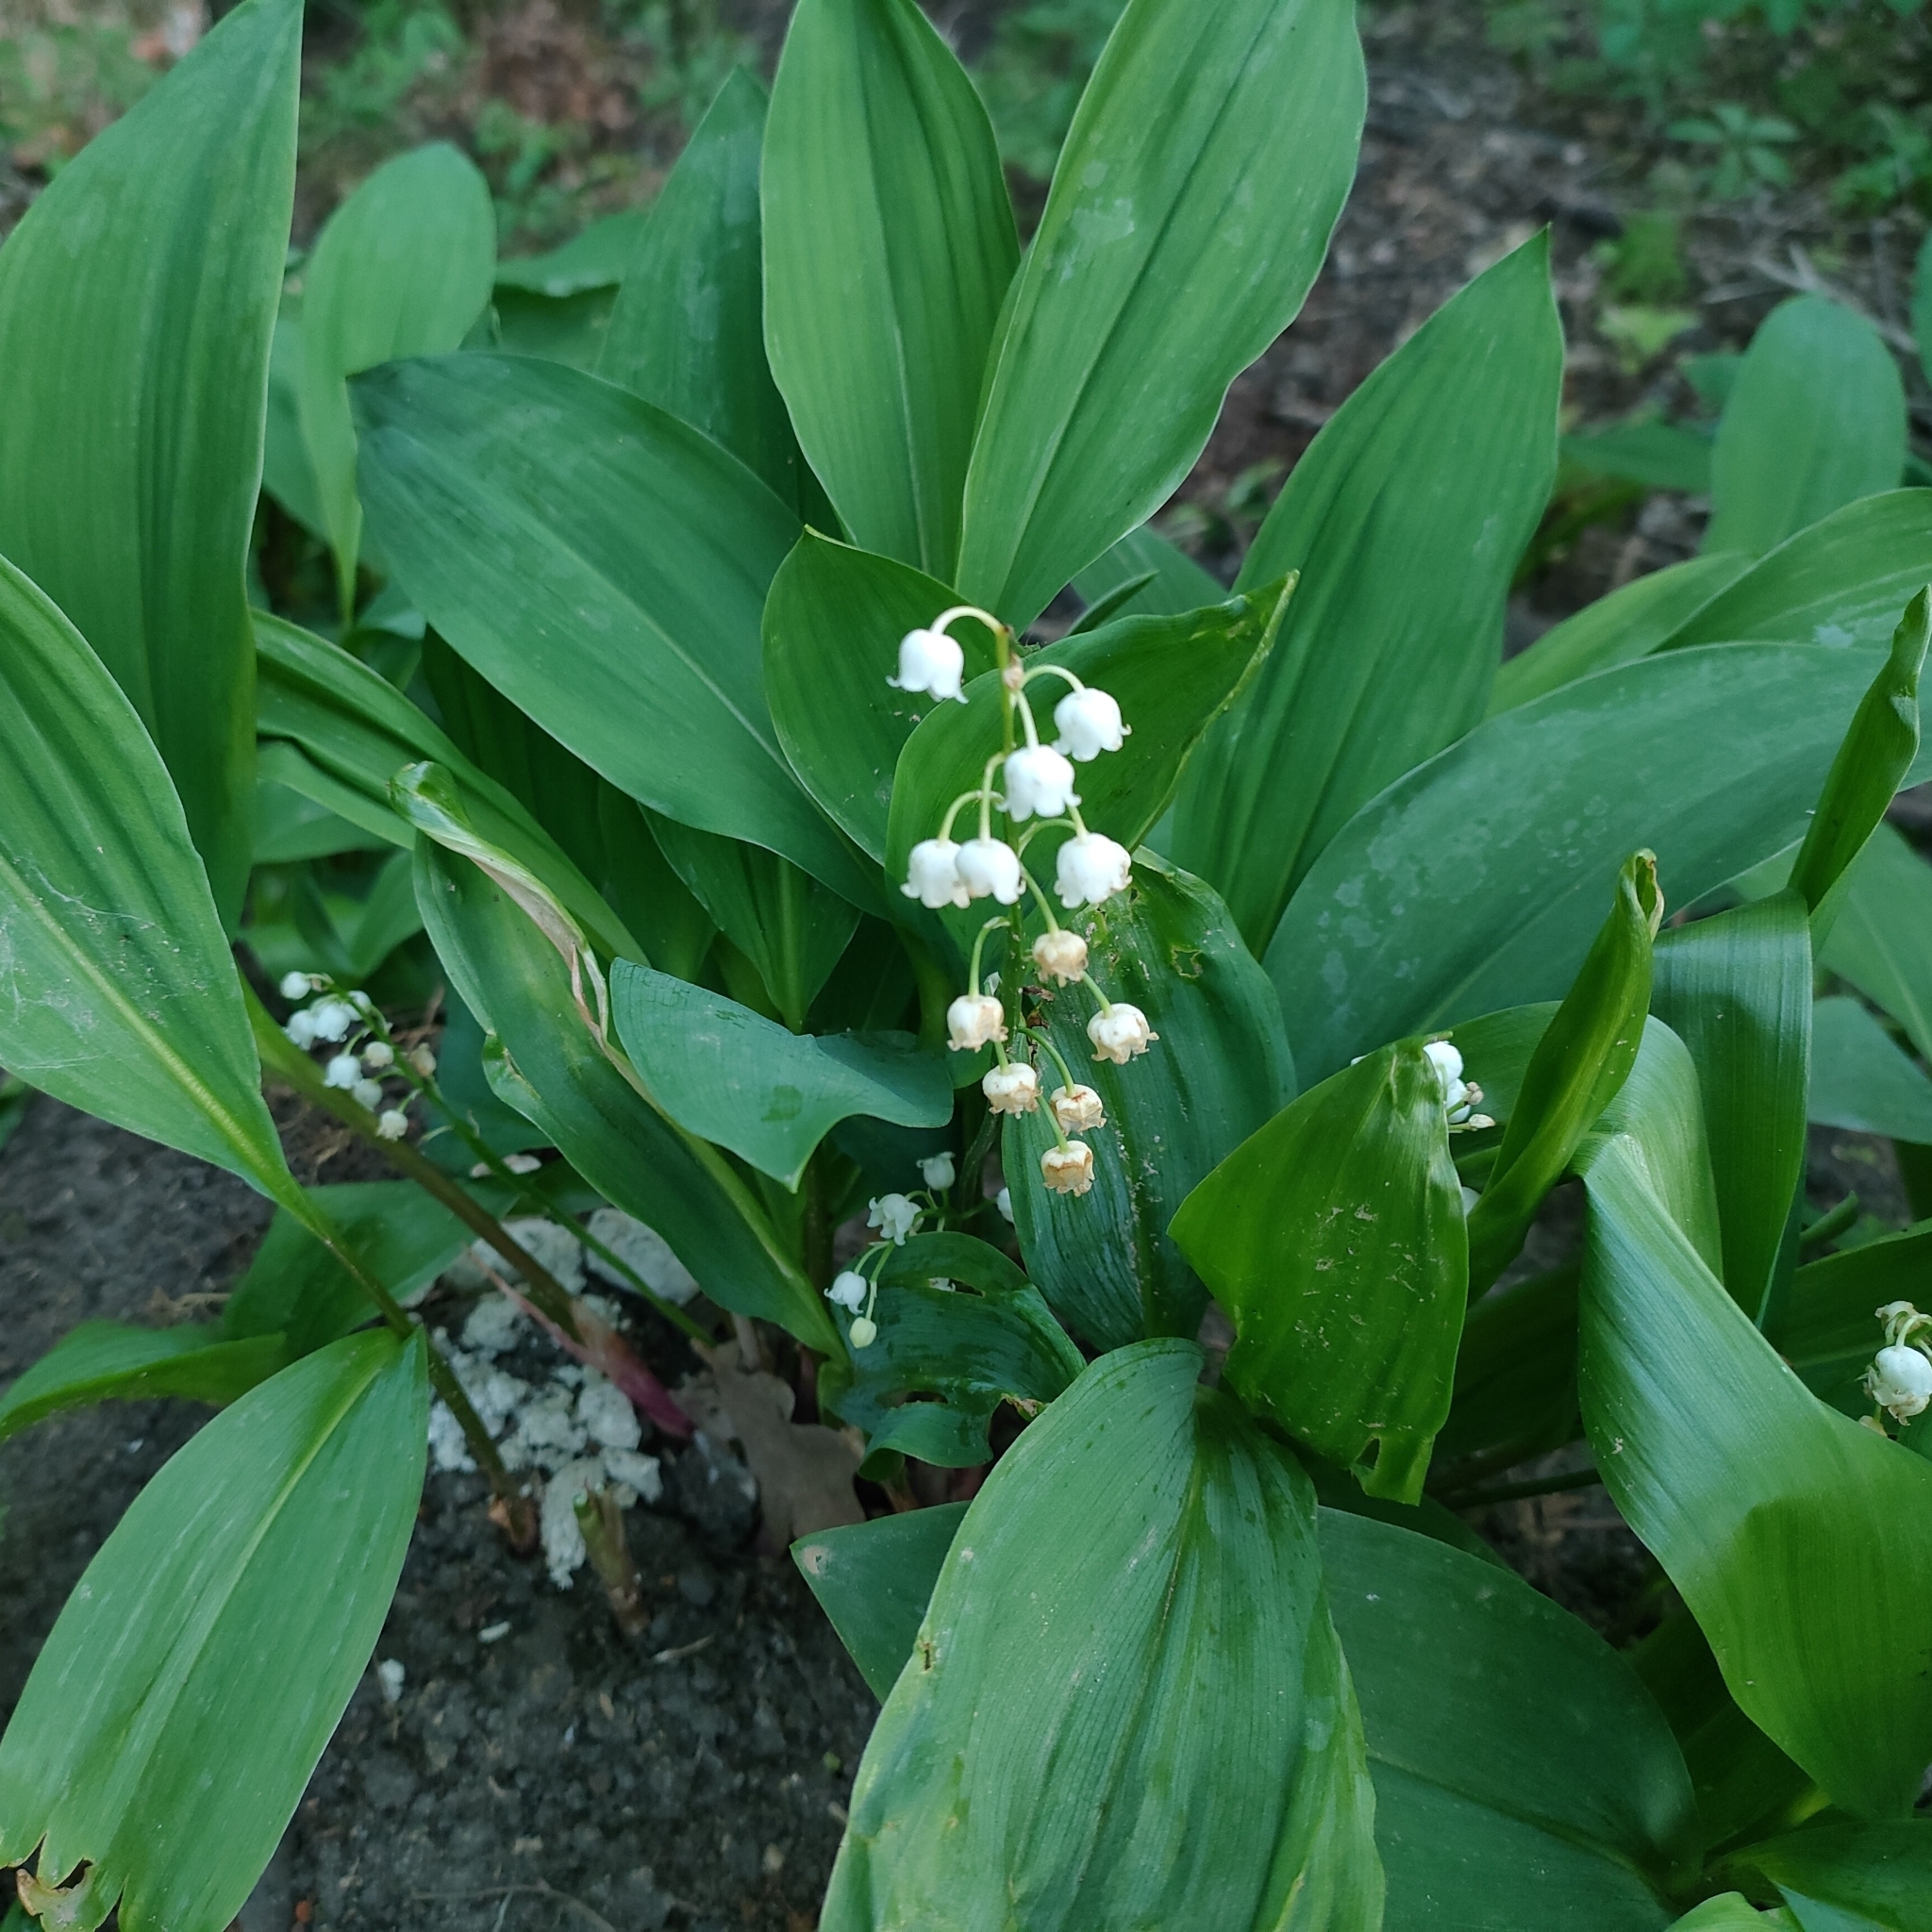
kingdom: Plantae
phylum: Tracheophyta
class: Liliopsida
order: Asparagales
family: Asparagaceae
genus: Convallaria
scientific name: Convallaria majalis
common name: Lily-of-the-valley
